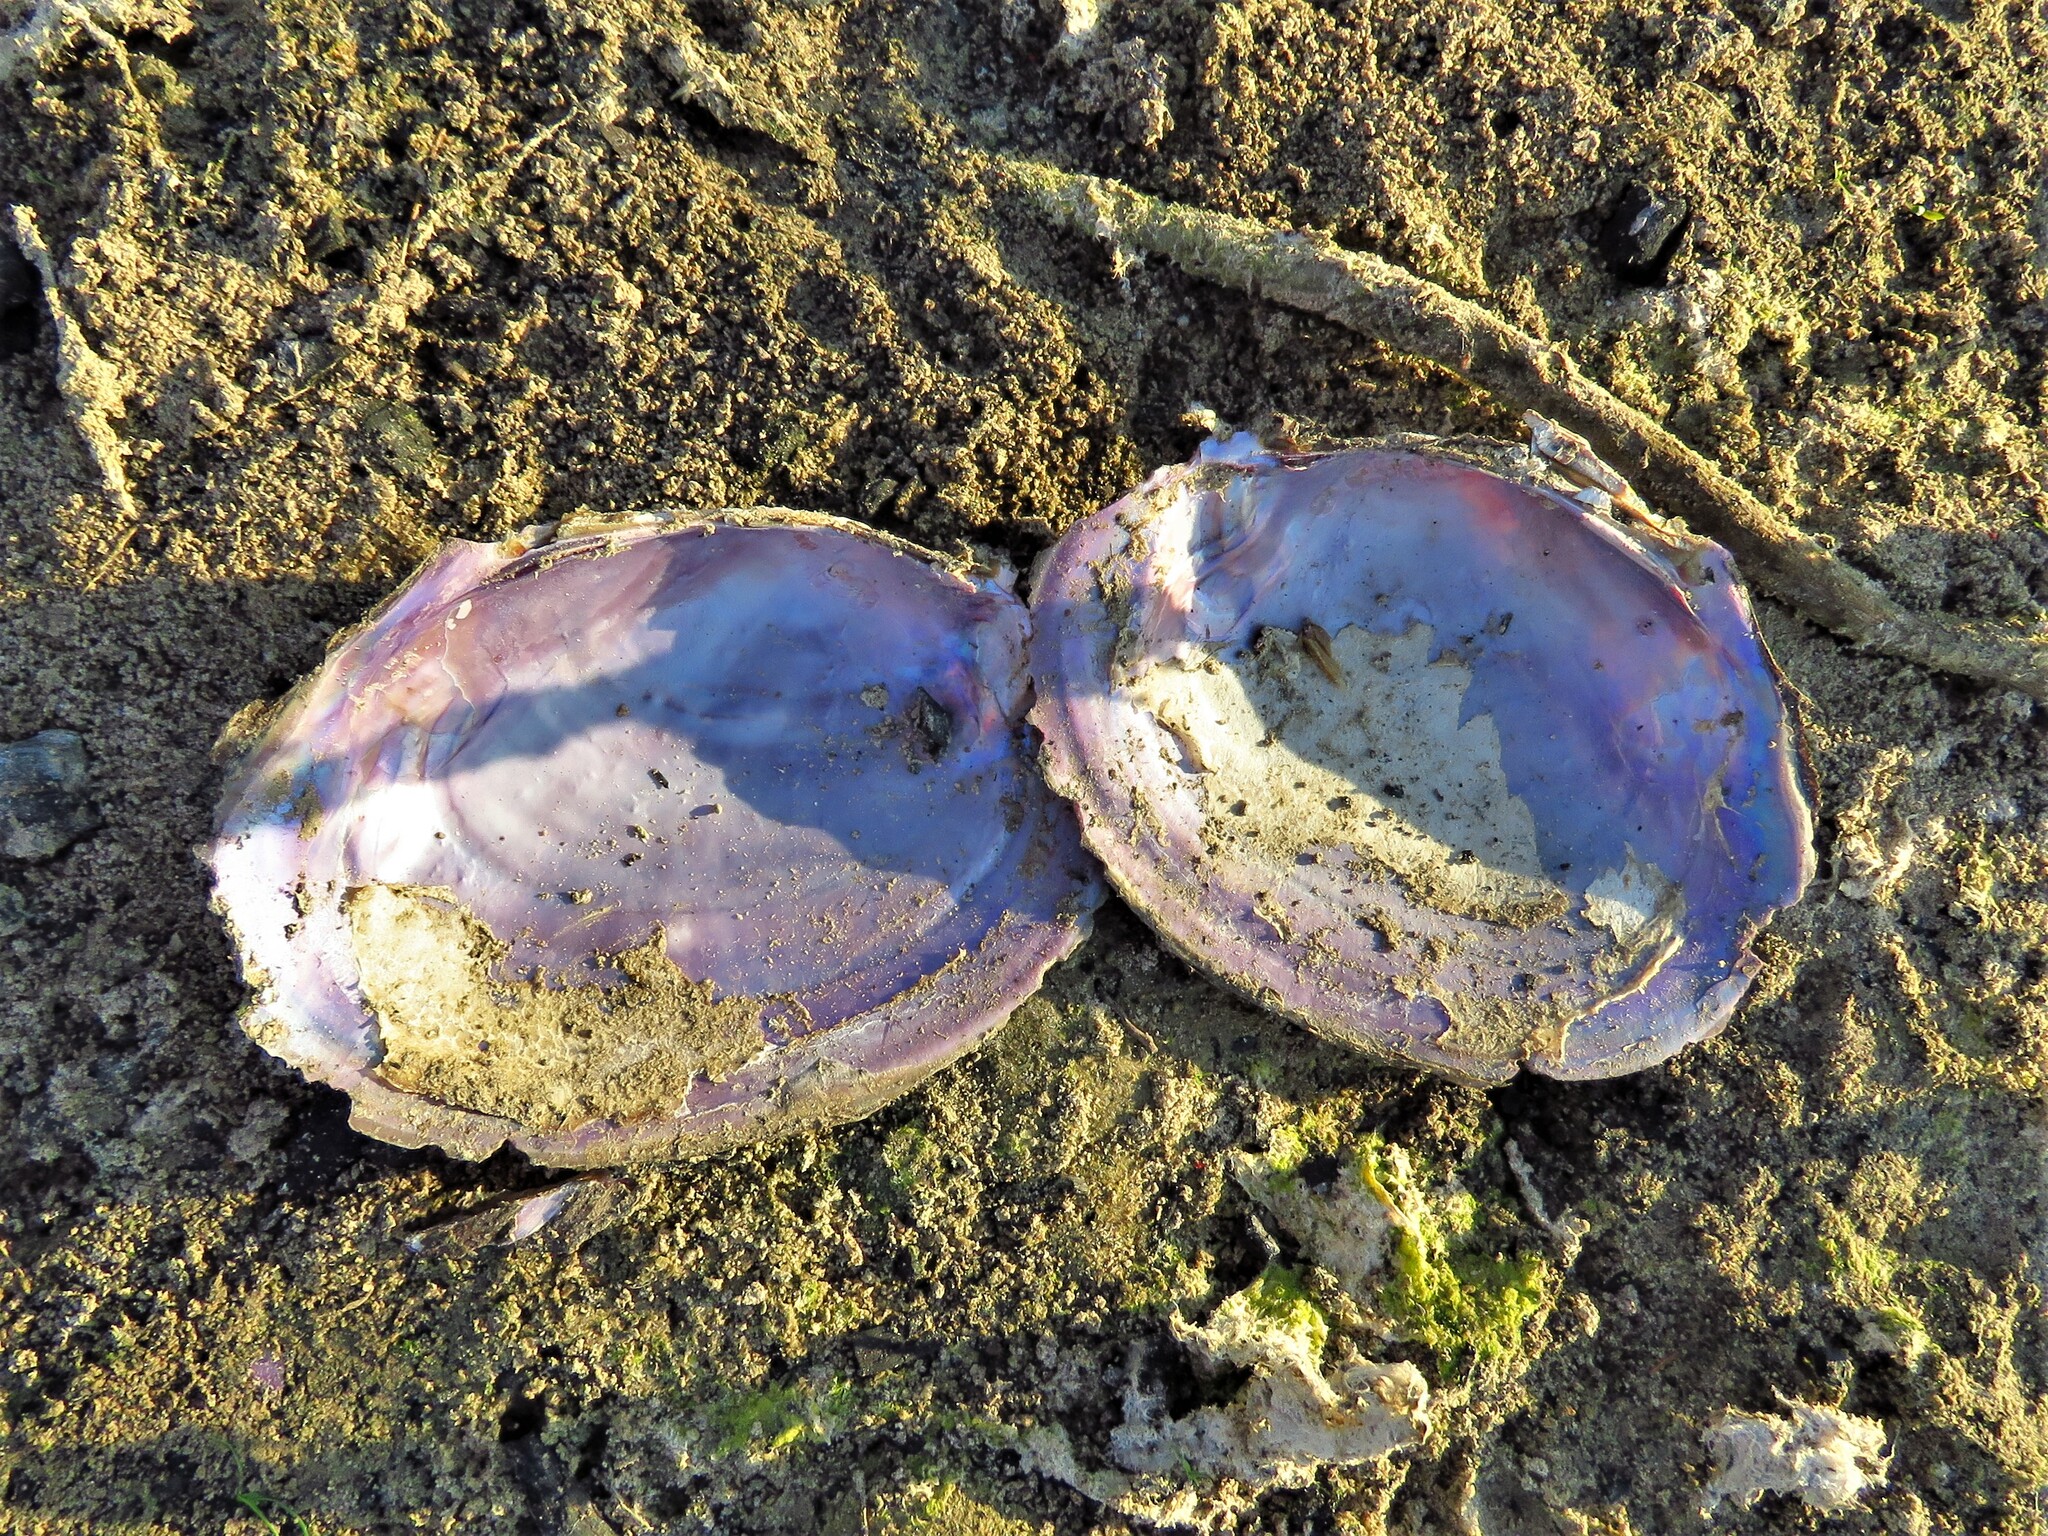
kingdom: Animalia
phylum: Mollusca
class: Bivalvia
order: Unionida
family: Unionidae
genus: Potamilus
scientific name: Potamilus ohiensis
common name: Pink papershell
